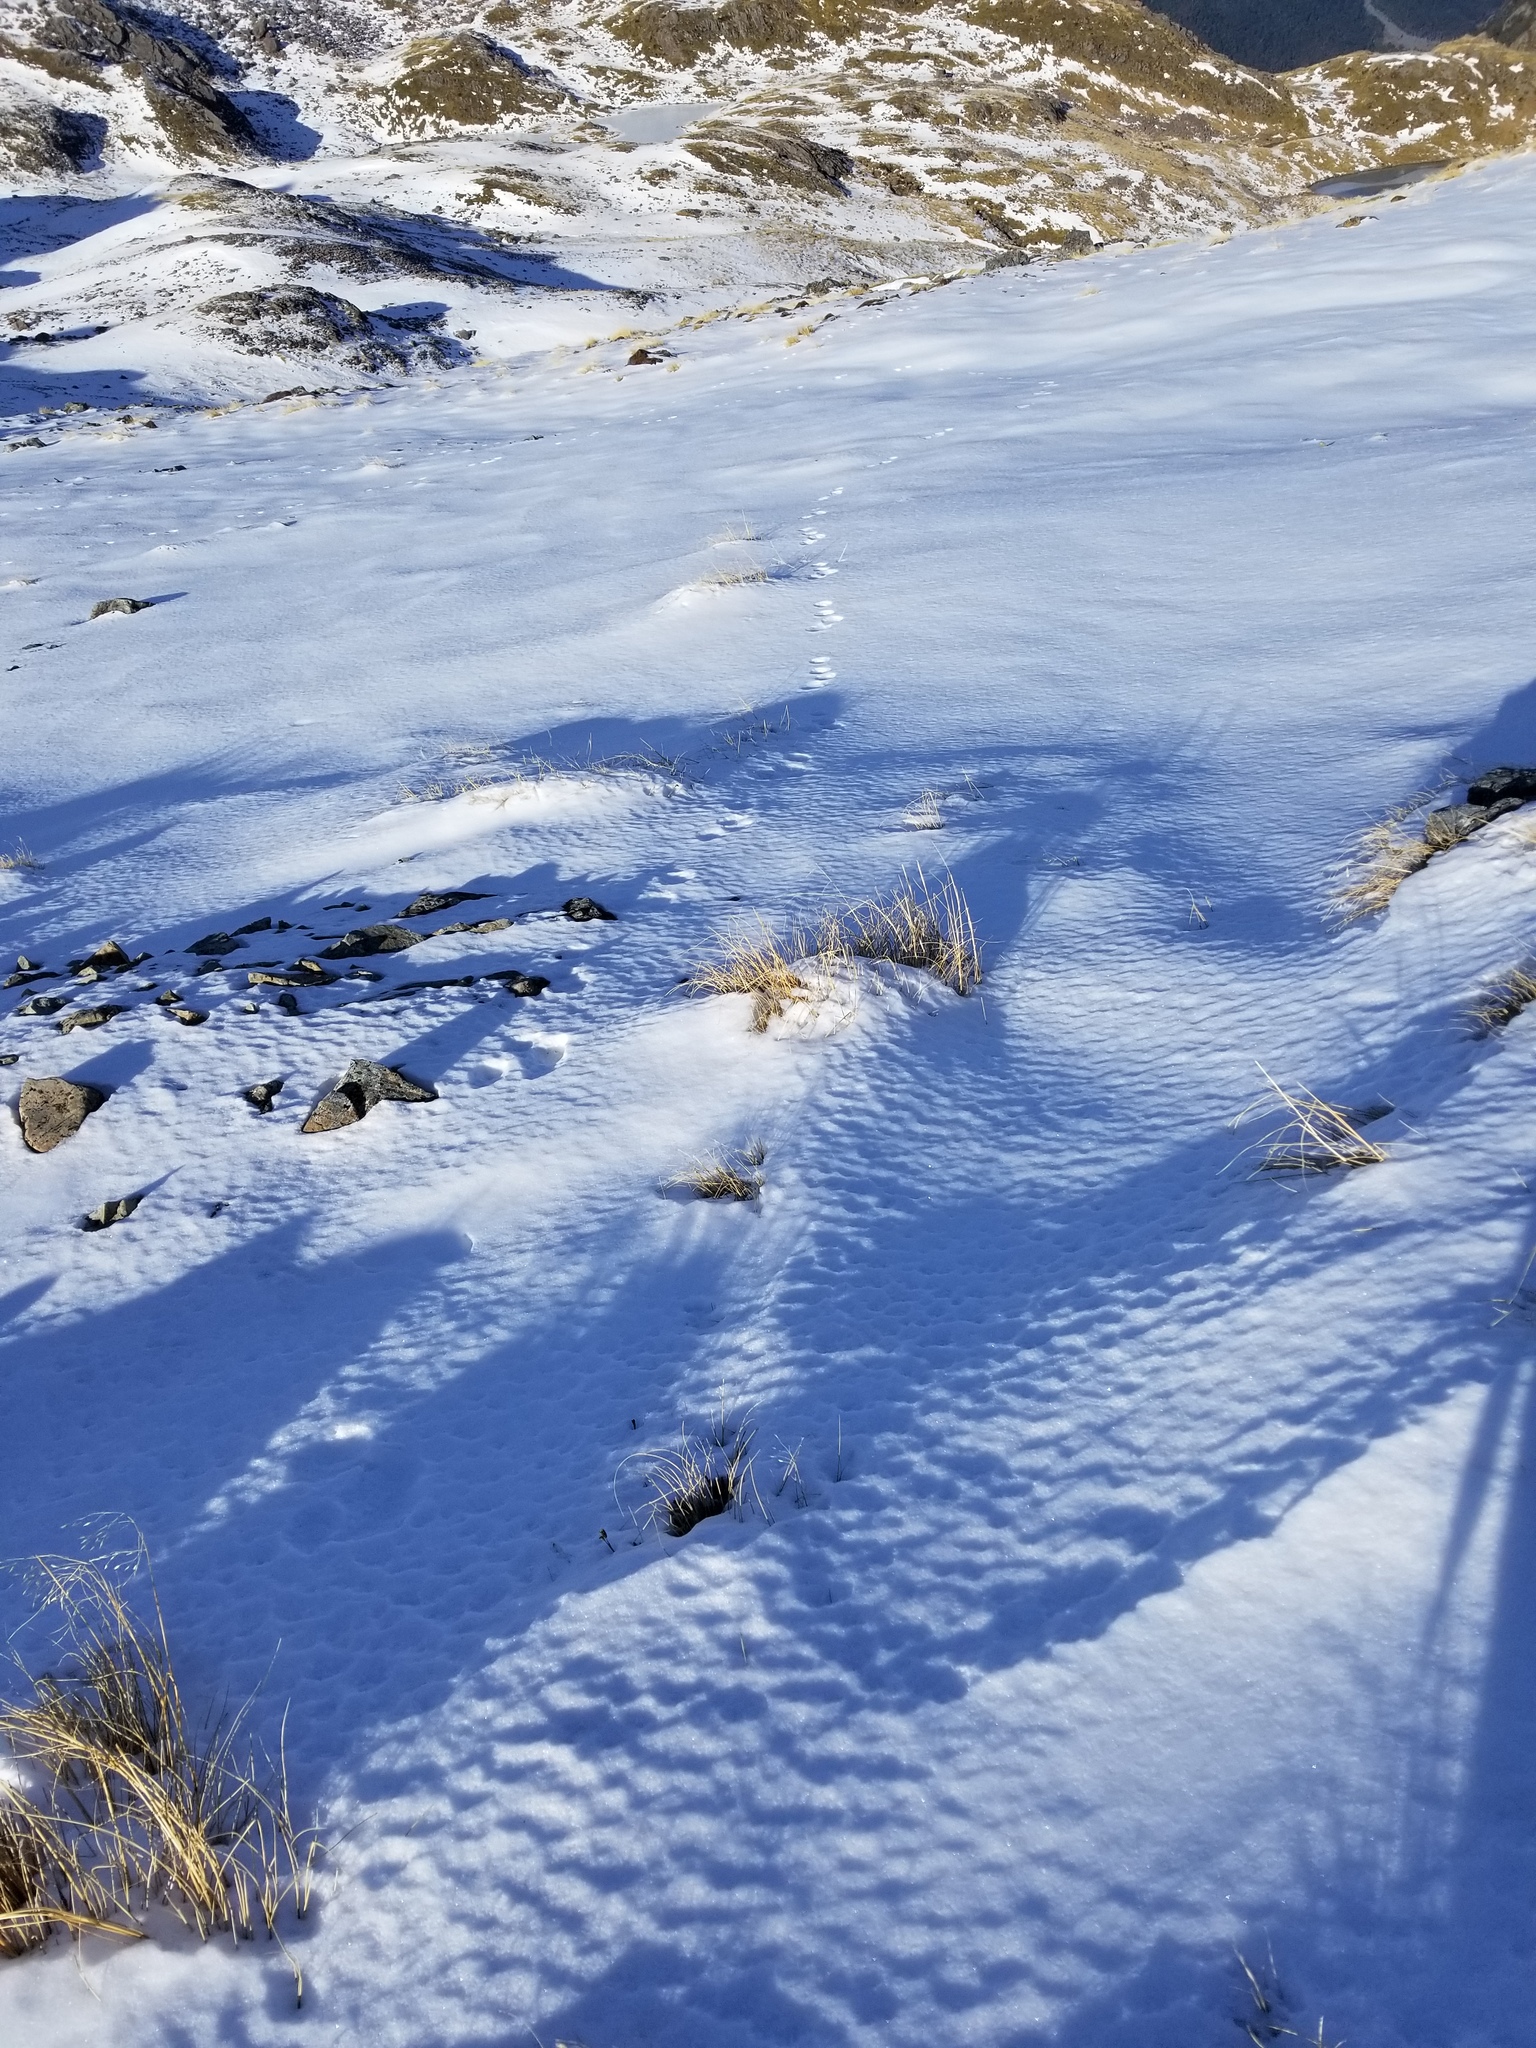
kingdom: Animalia
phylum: Chordata
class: Mammalia
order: Lagomorpha
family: Leporidae
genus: Lepus
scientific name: Lepus europaeus
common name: European hare
